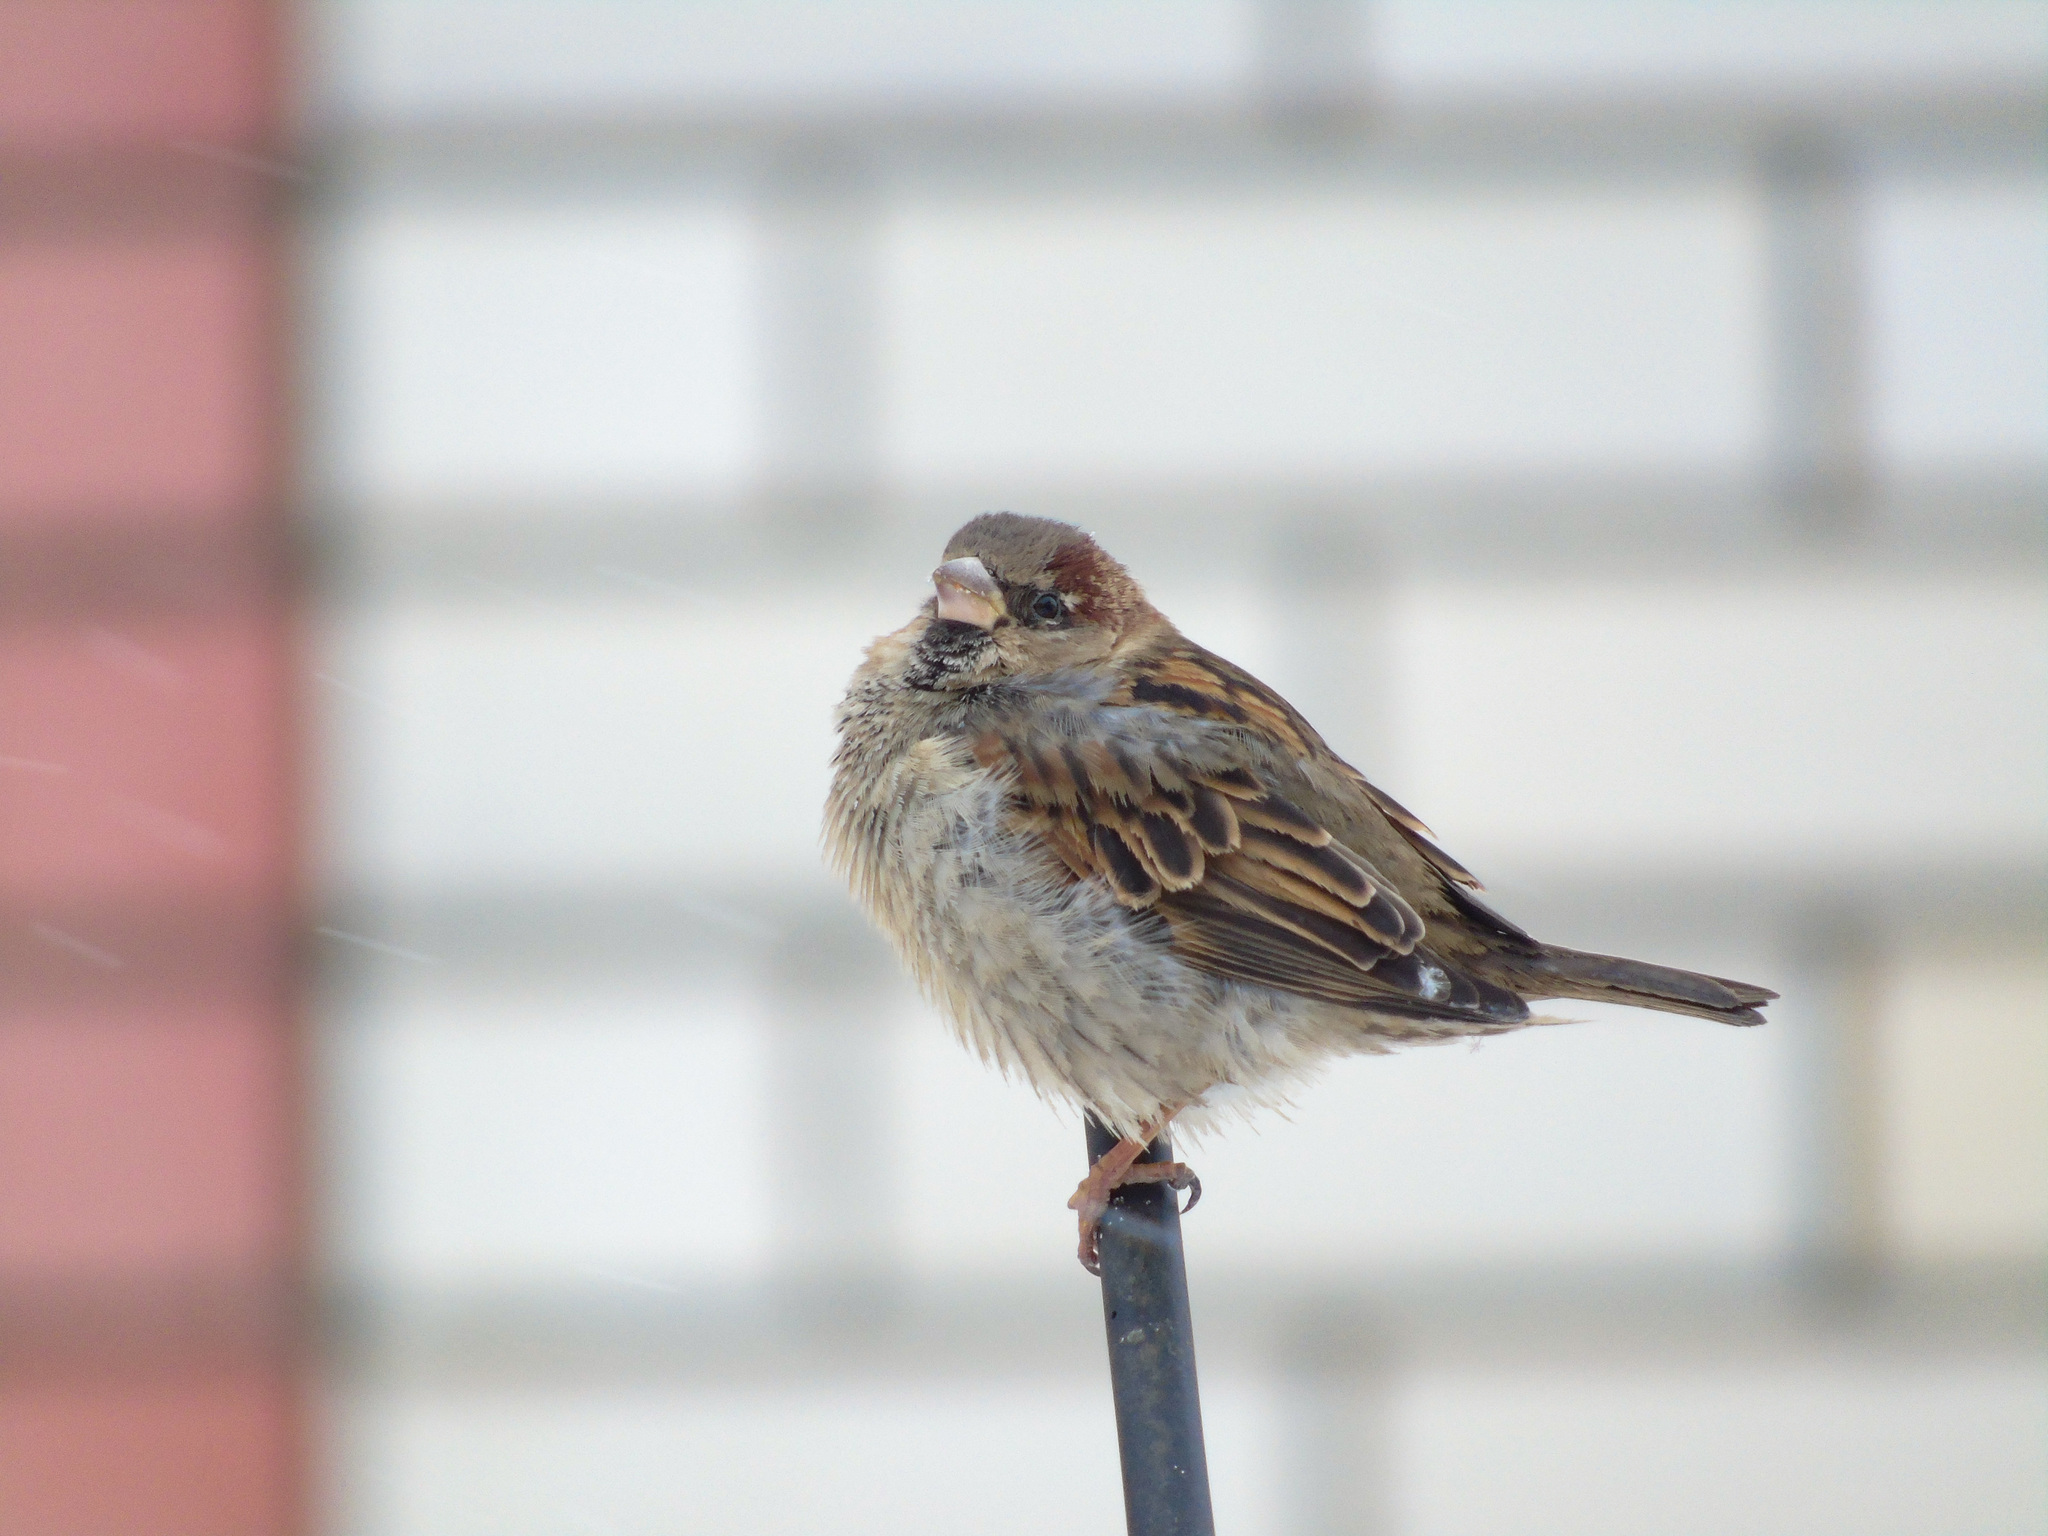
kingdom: Animalia
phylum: Chordata
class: Aves
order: Passeriformes
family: Passeridae
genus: Passer
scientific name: Passer domesticus
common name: House sparrow
